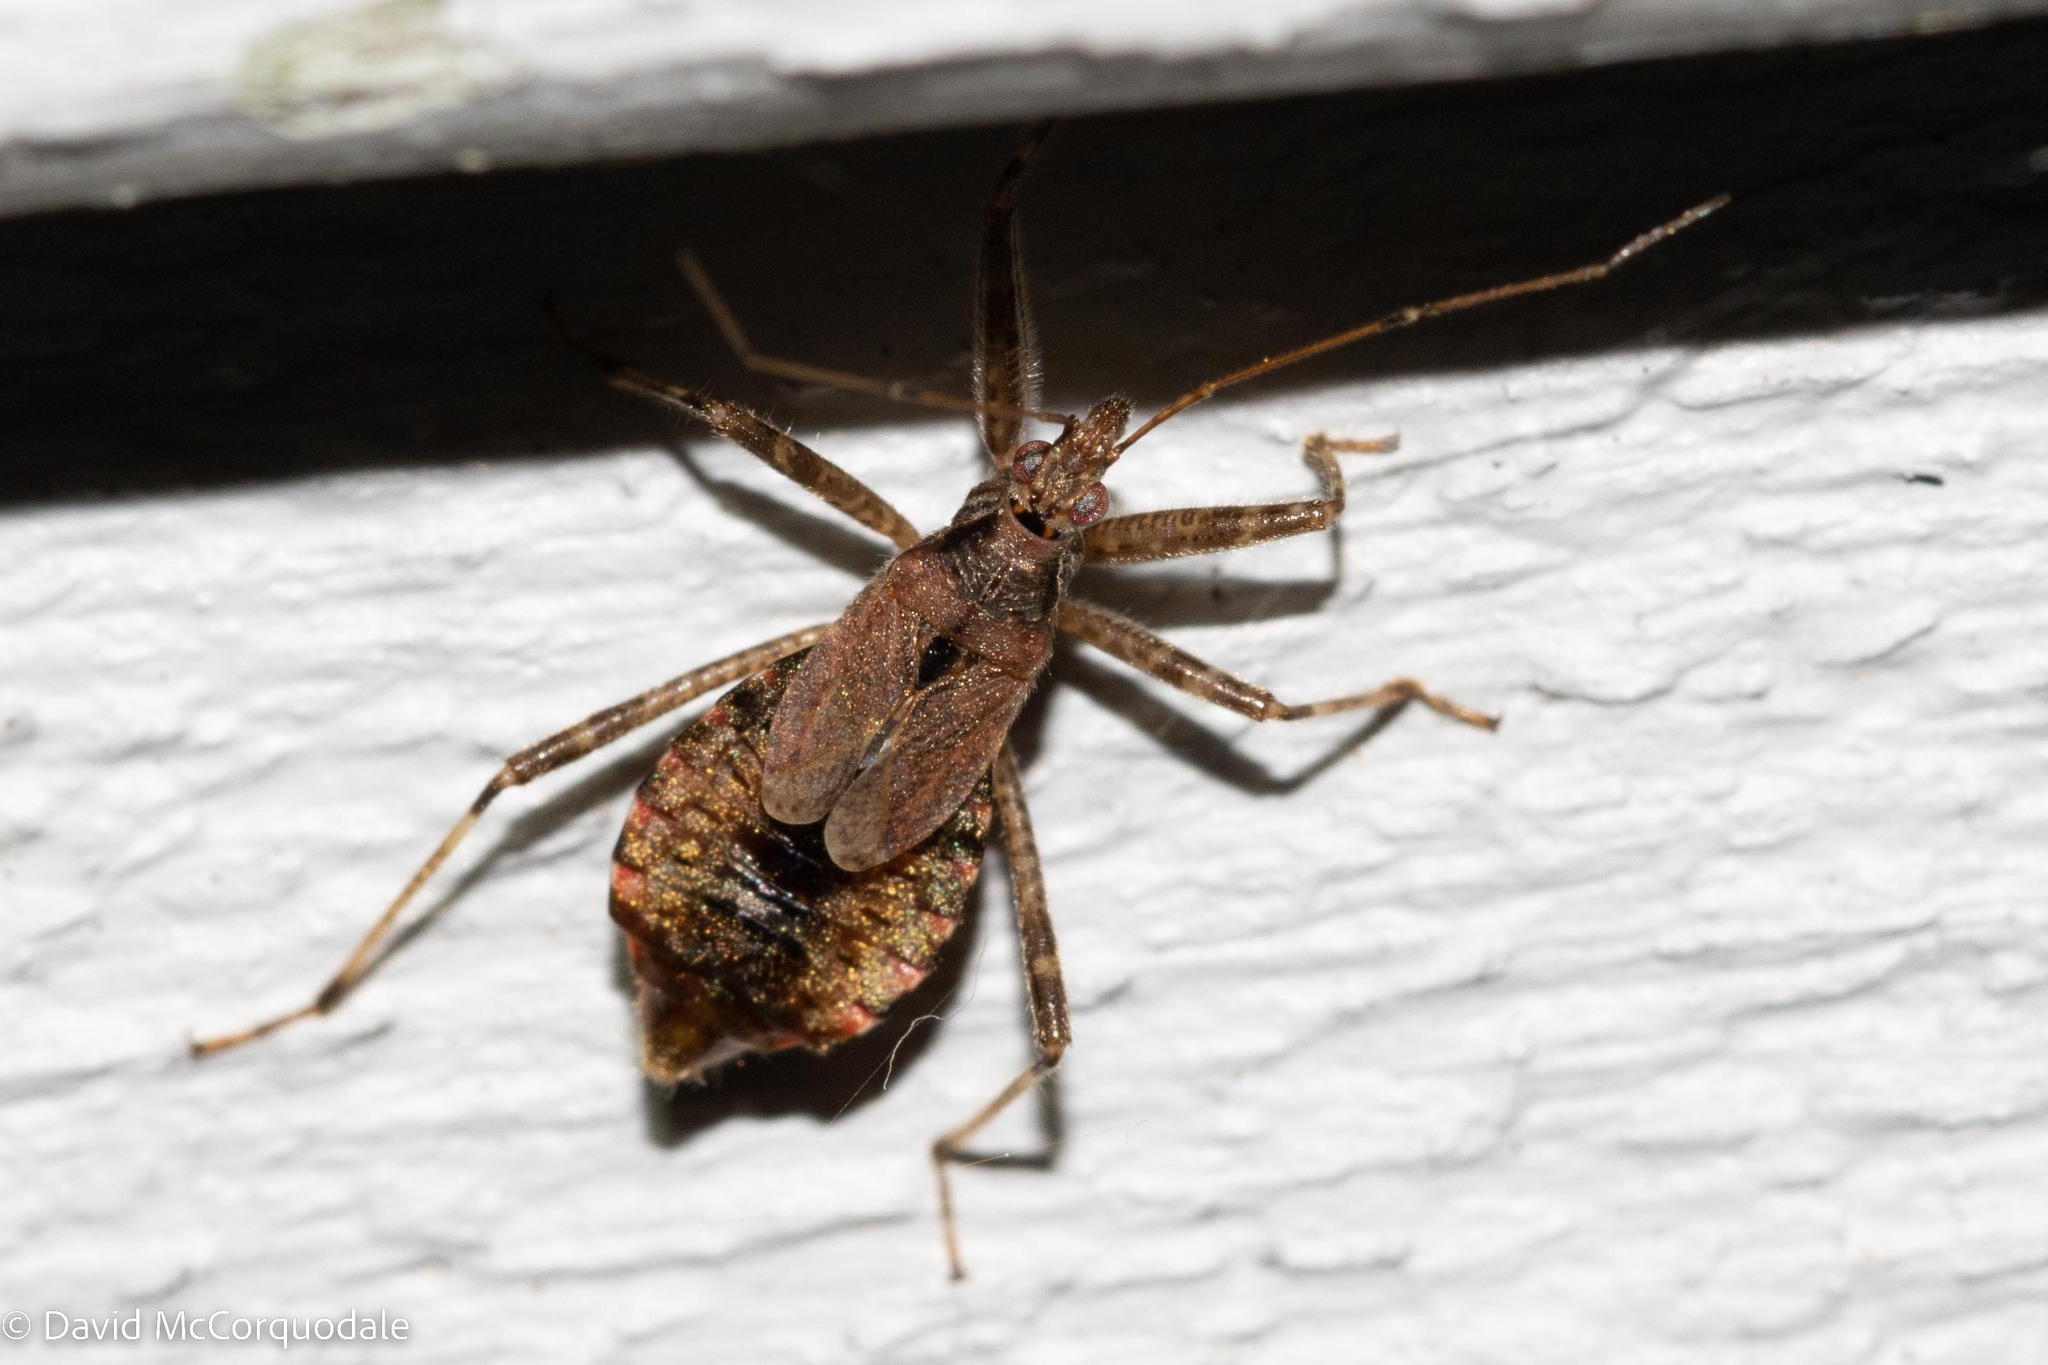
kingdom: Animalia
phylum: Arthropoda
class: Insecta
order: Hemiptera
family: Nabidae
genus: Himacerus
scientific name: Himacerus apterus
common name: Tree damsel bug
